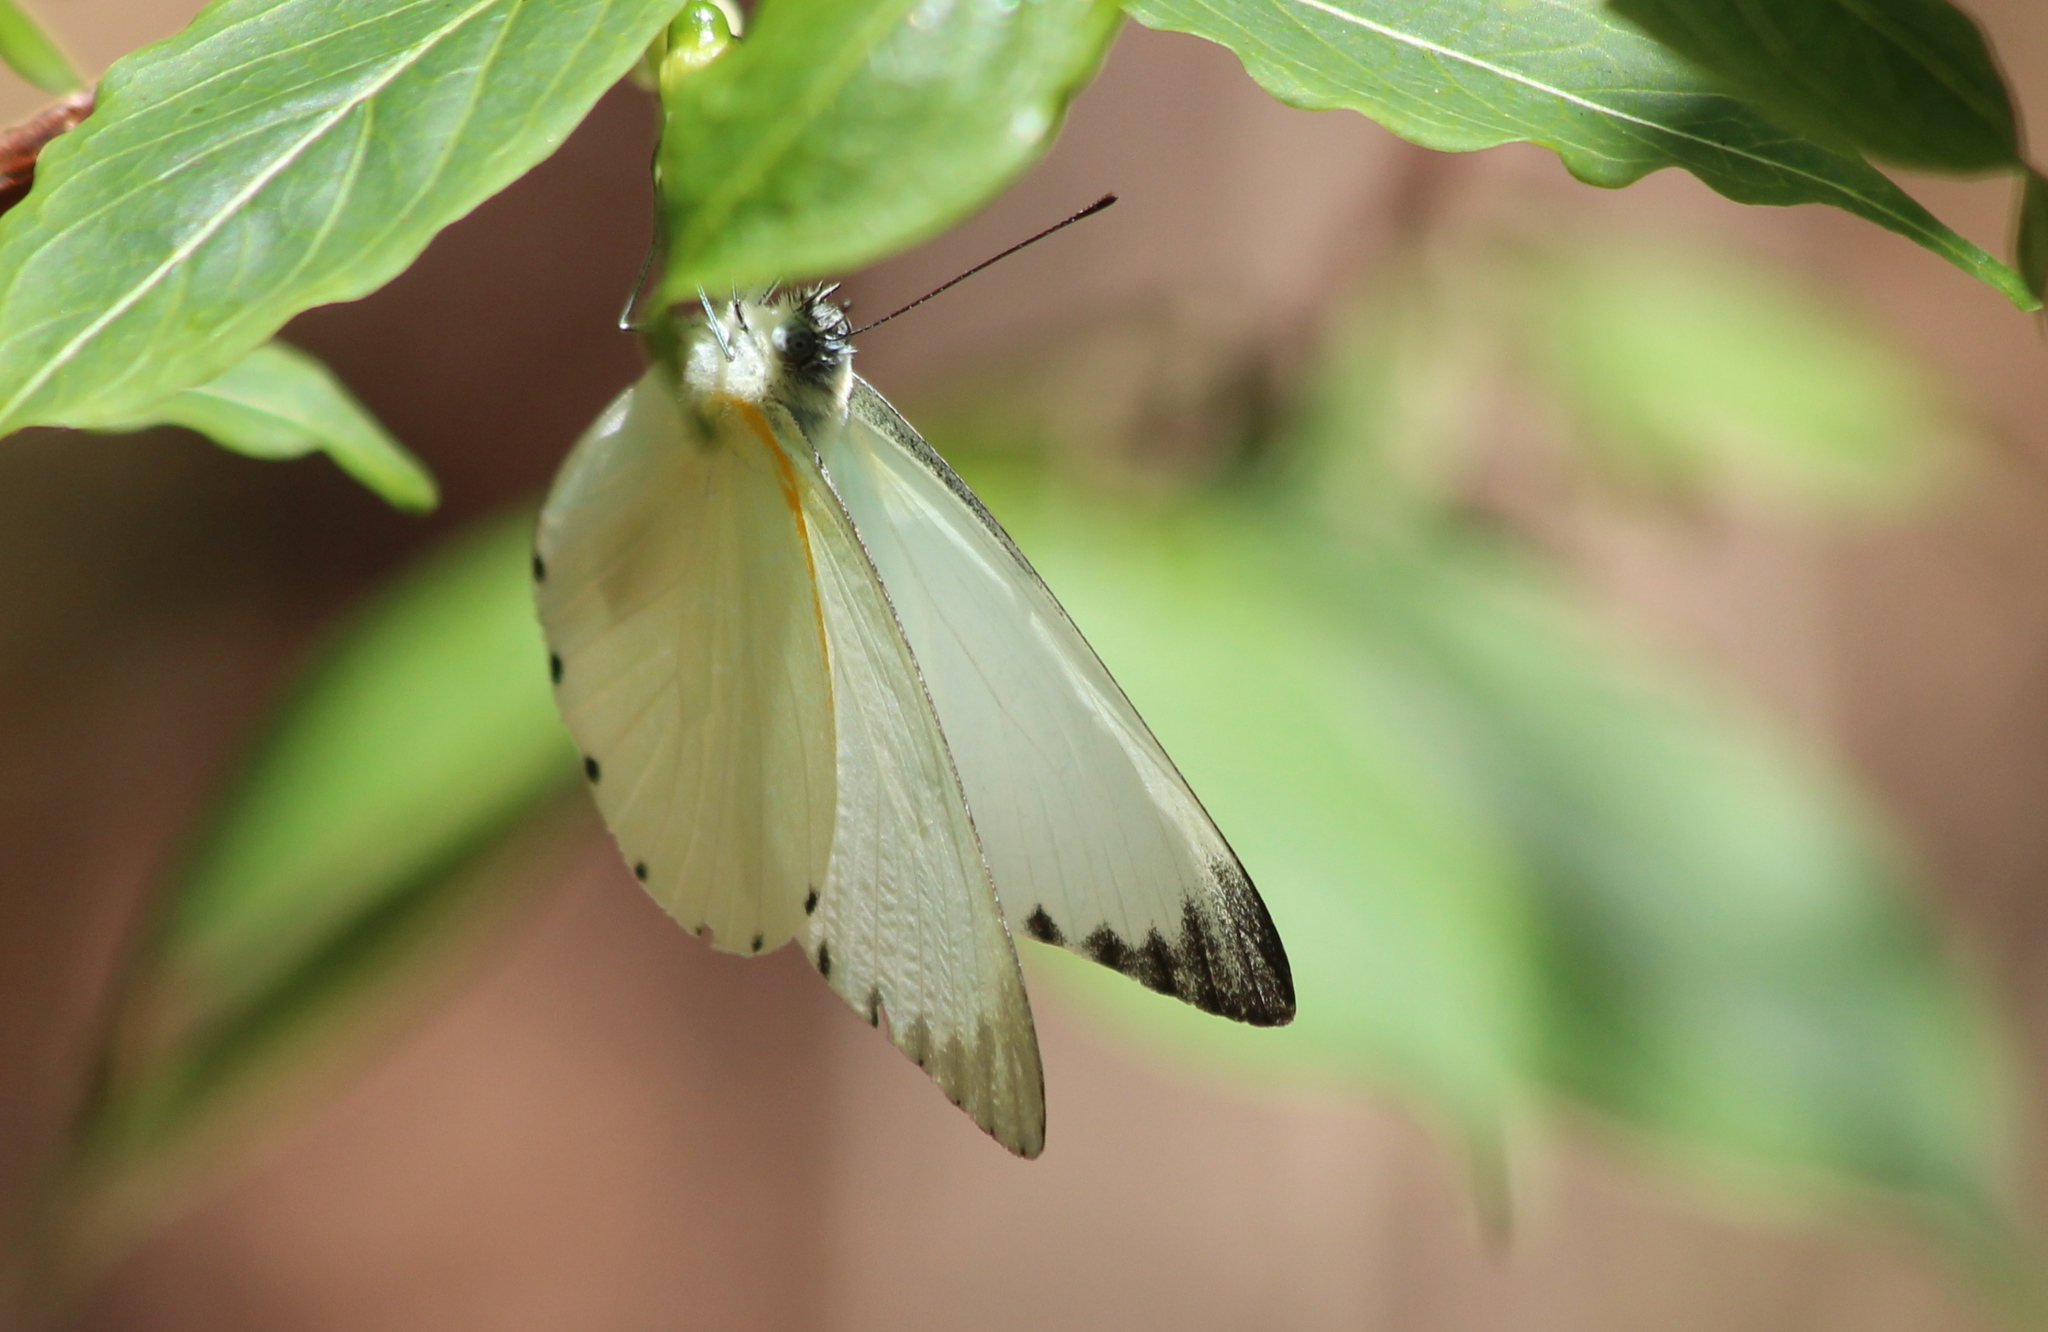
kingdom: Animalia
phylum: Arthropoda
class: Insecta
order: Lepidoptera
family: Pieridae
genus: Glutophrissa
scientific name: Glutophrissa sabina
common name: Sabine albatross
